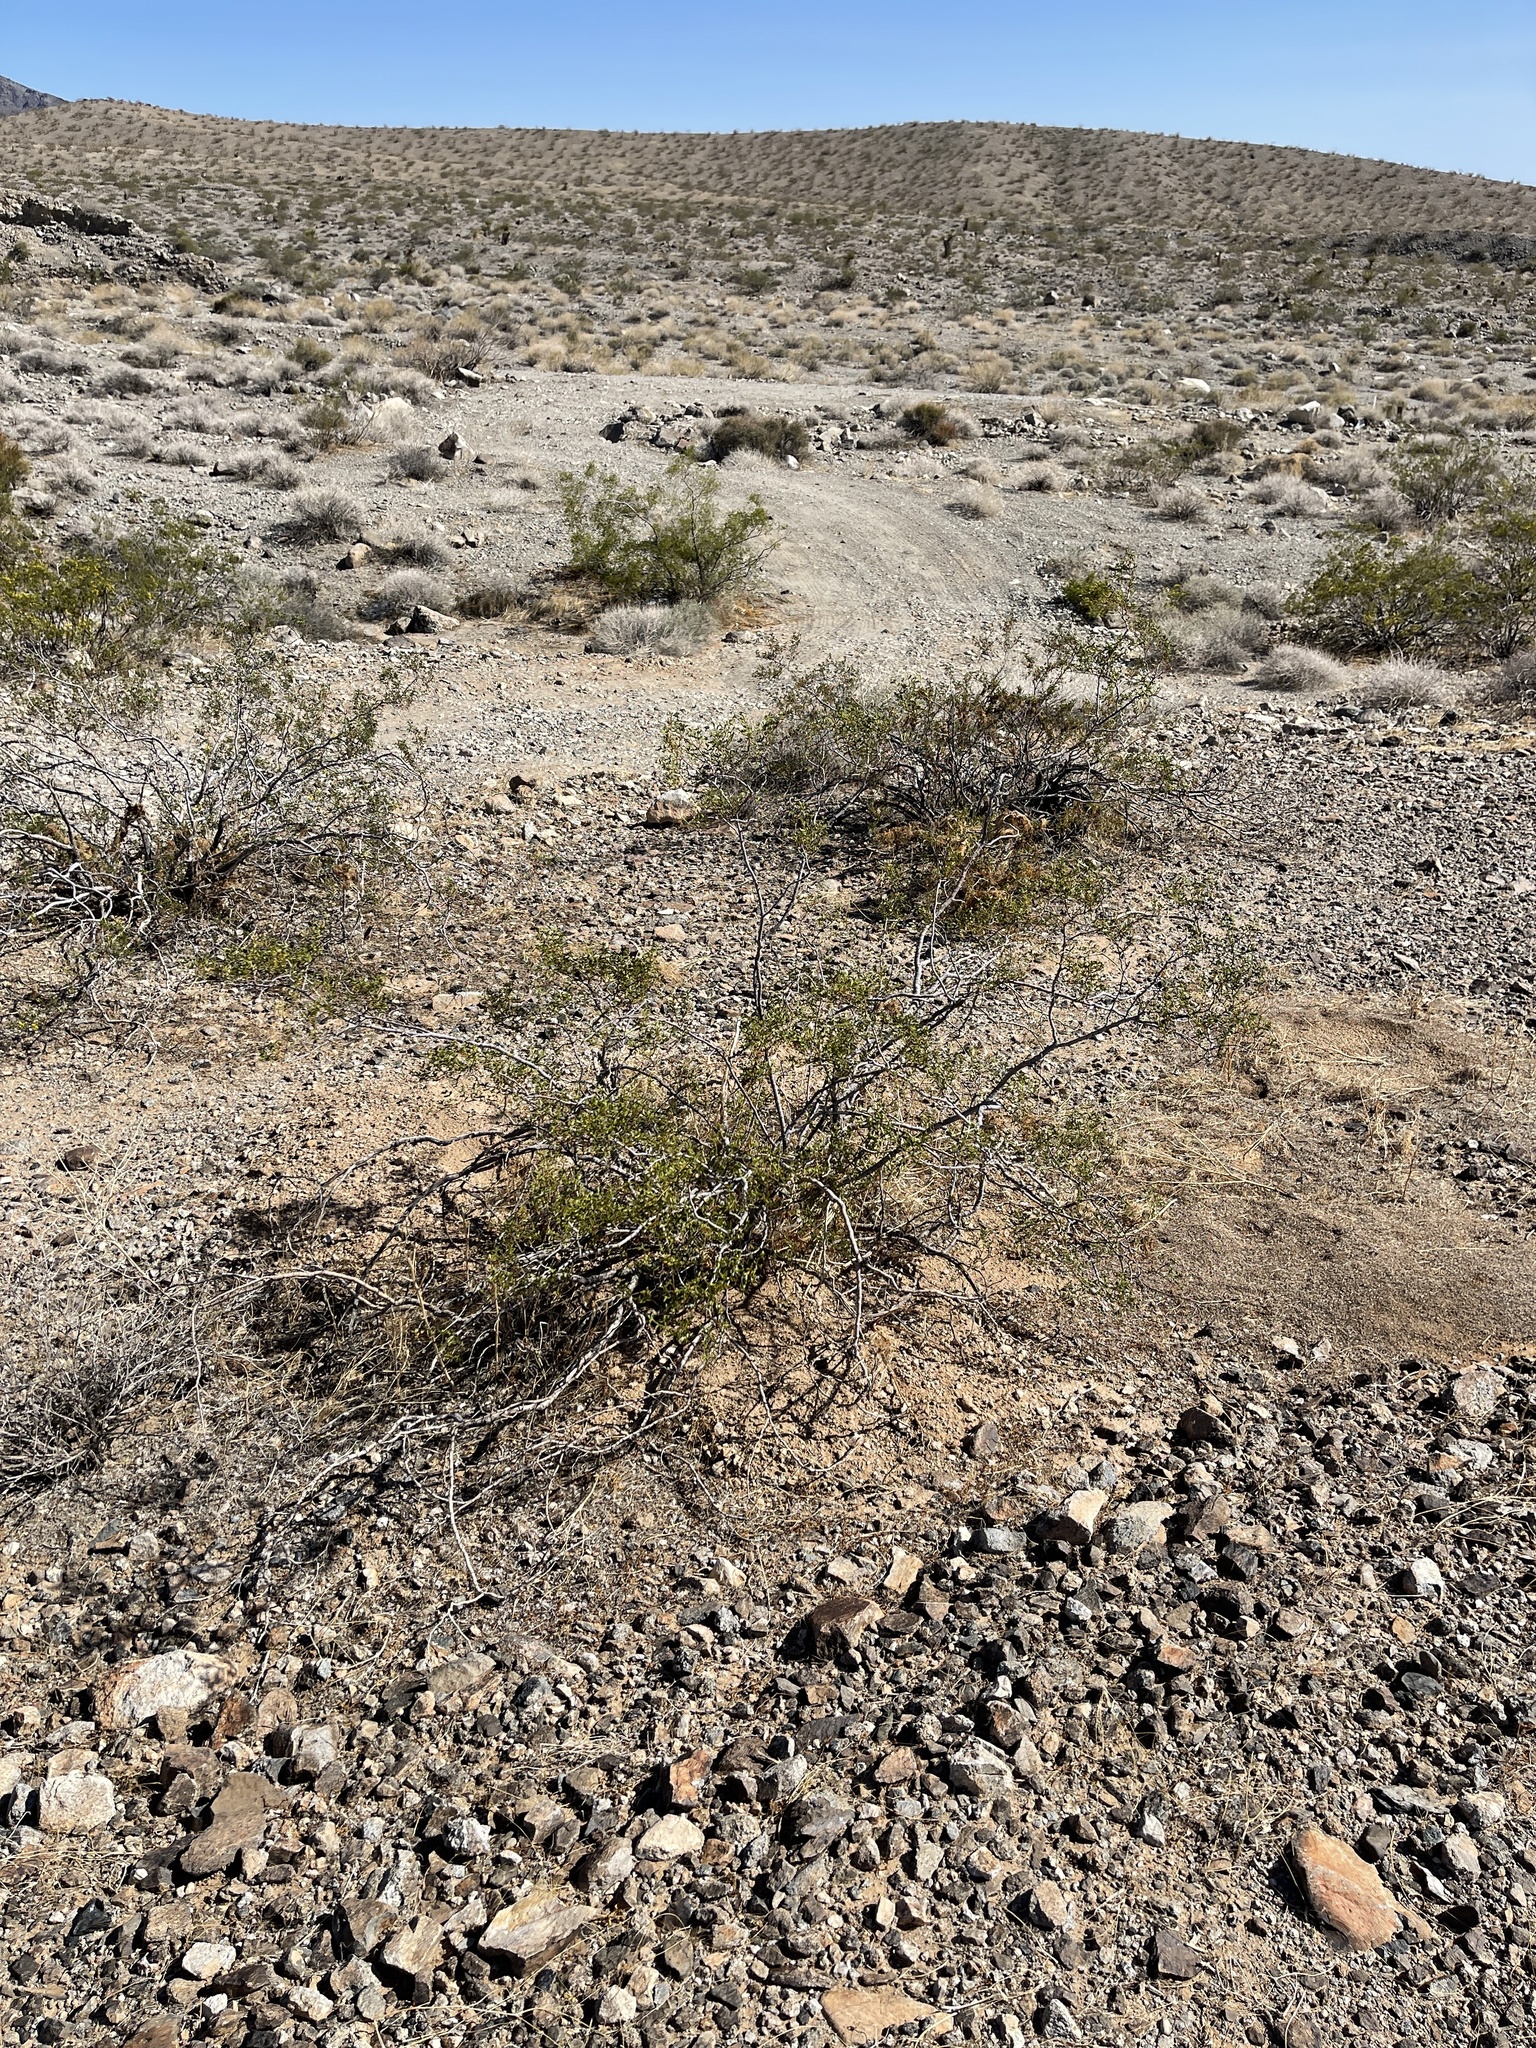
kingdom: Plantae
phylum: Tracheophyta
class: Magnoliopsida
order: Zygophyllales
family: Zygophyllaceae
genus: Larrea
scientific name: Larrea tridentata
